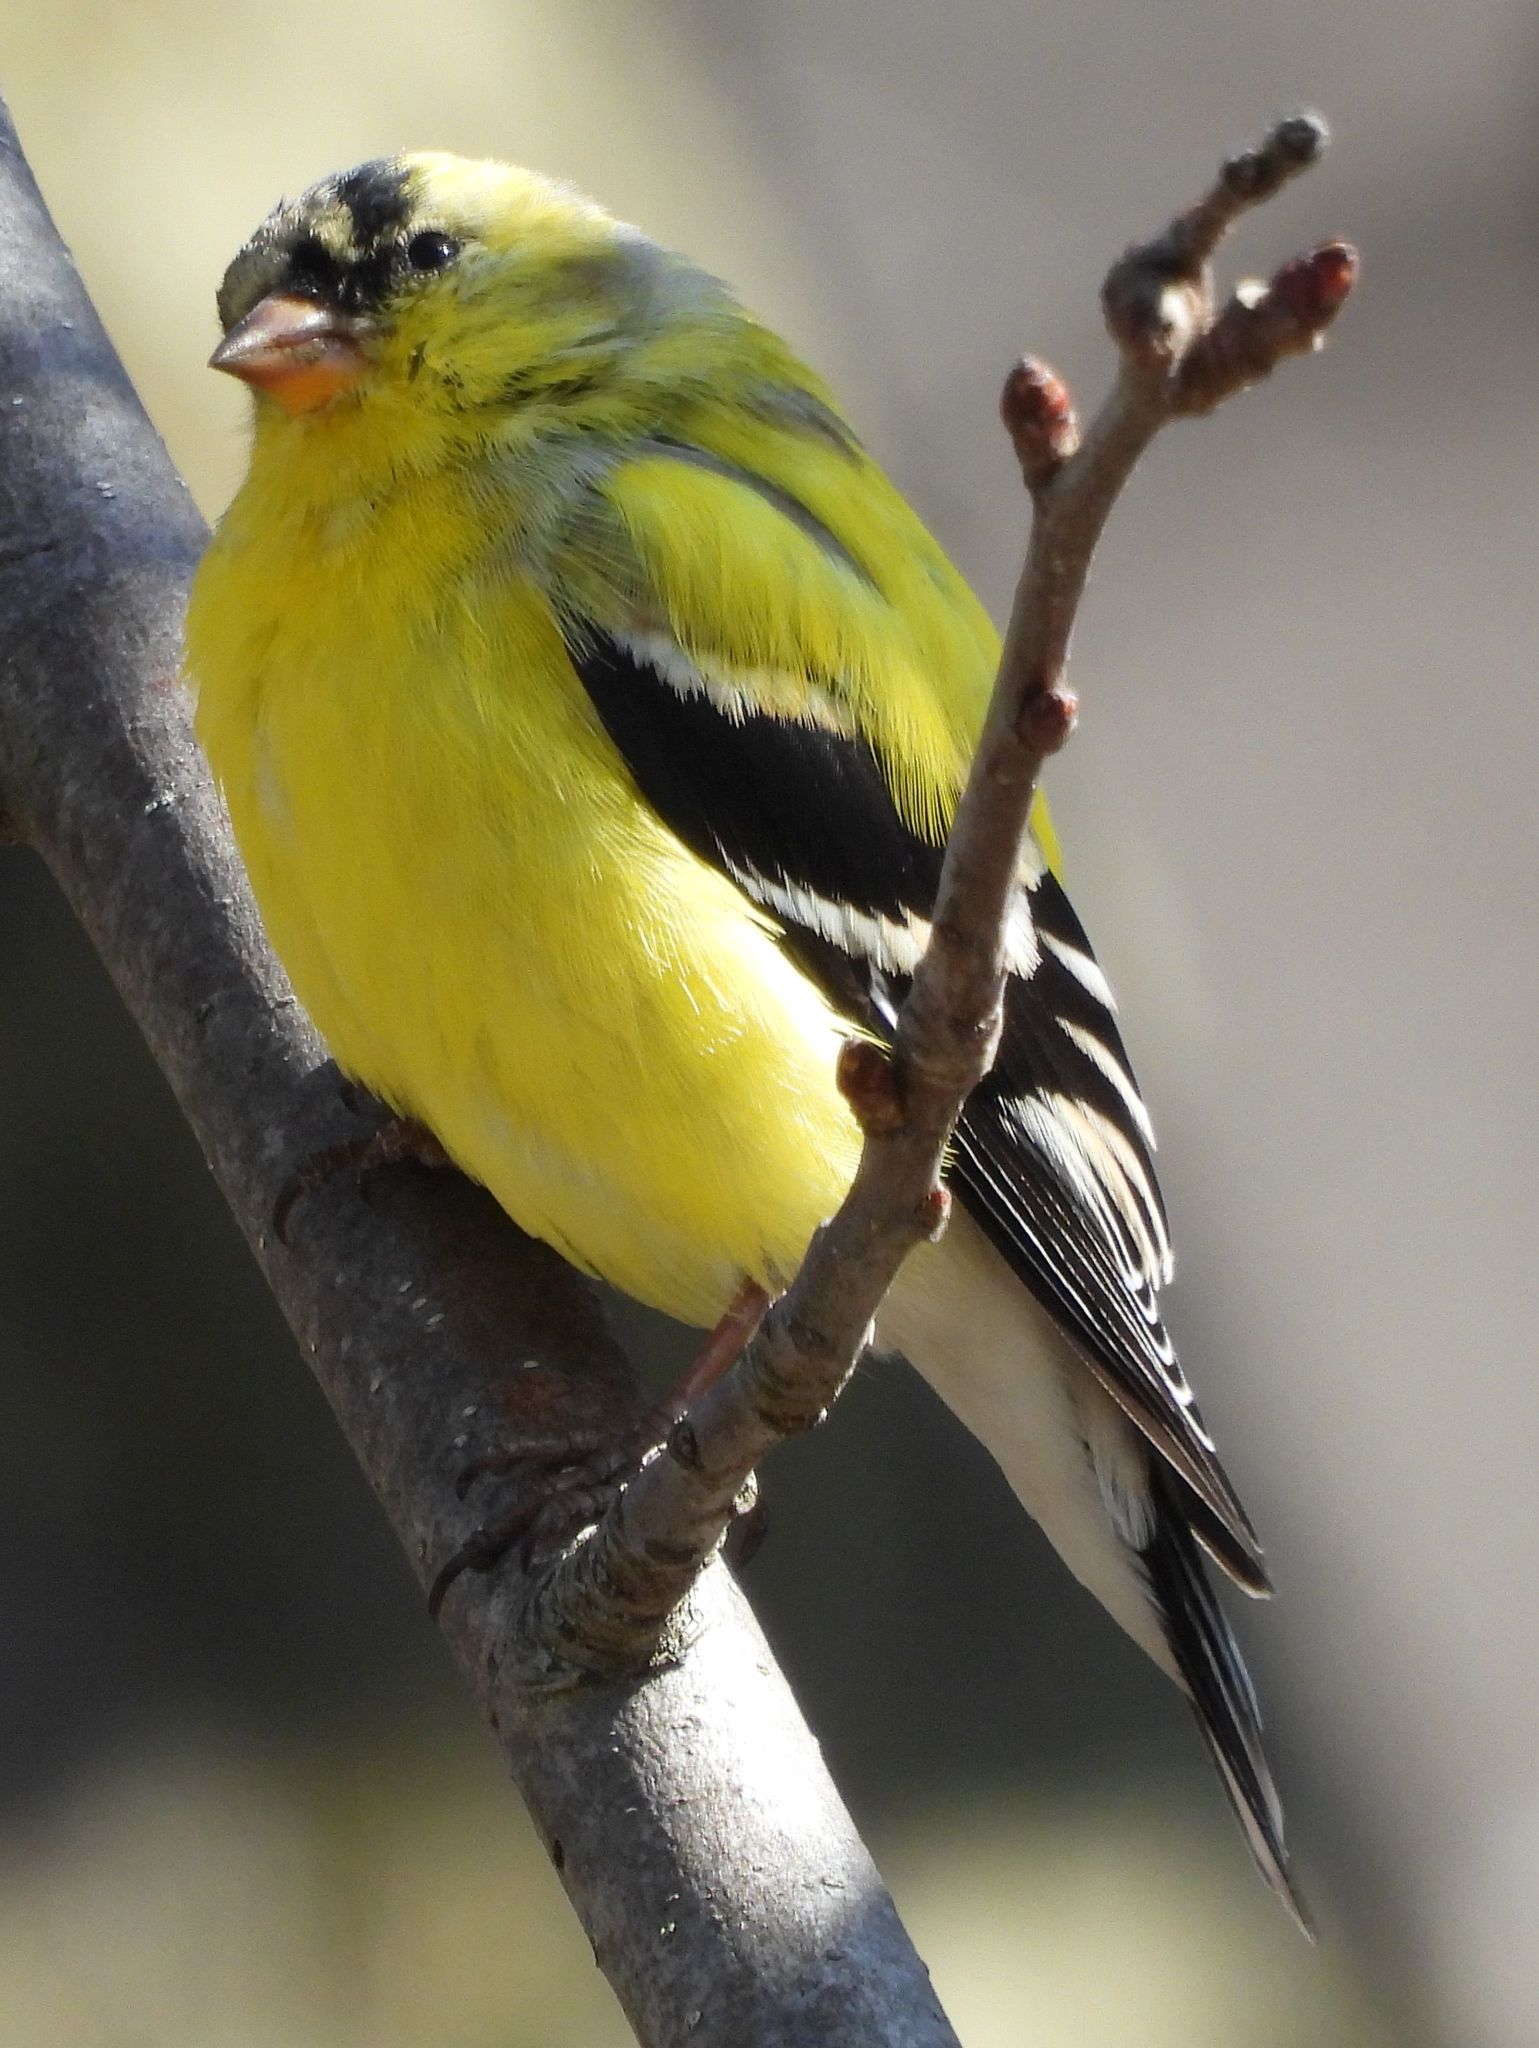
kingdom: Animalia
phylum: Chordata
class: Aves
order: Passeriformes
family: Fringillidae
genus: Spinus
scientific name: Spinus tristis
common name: American goldfinch
